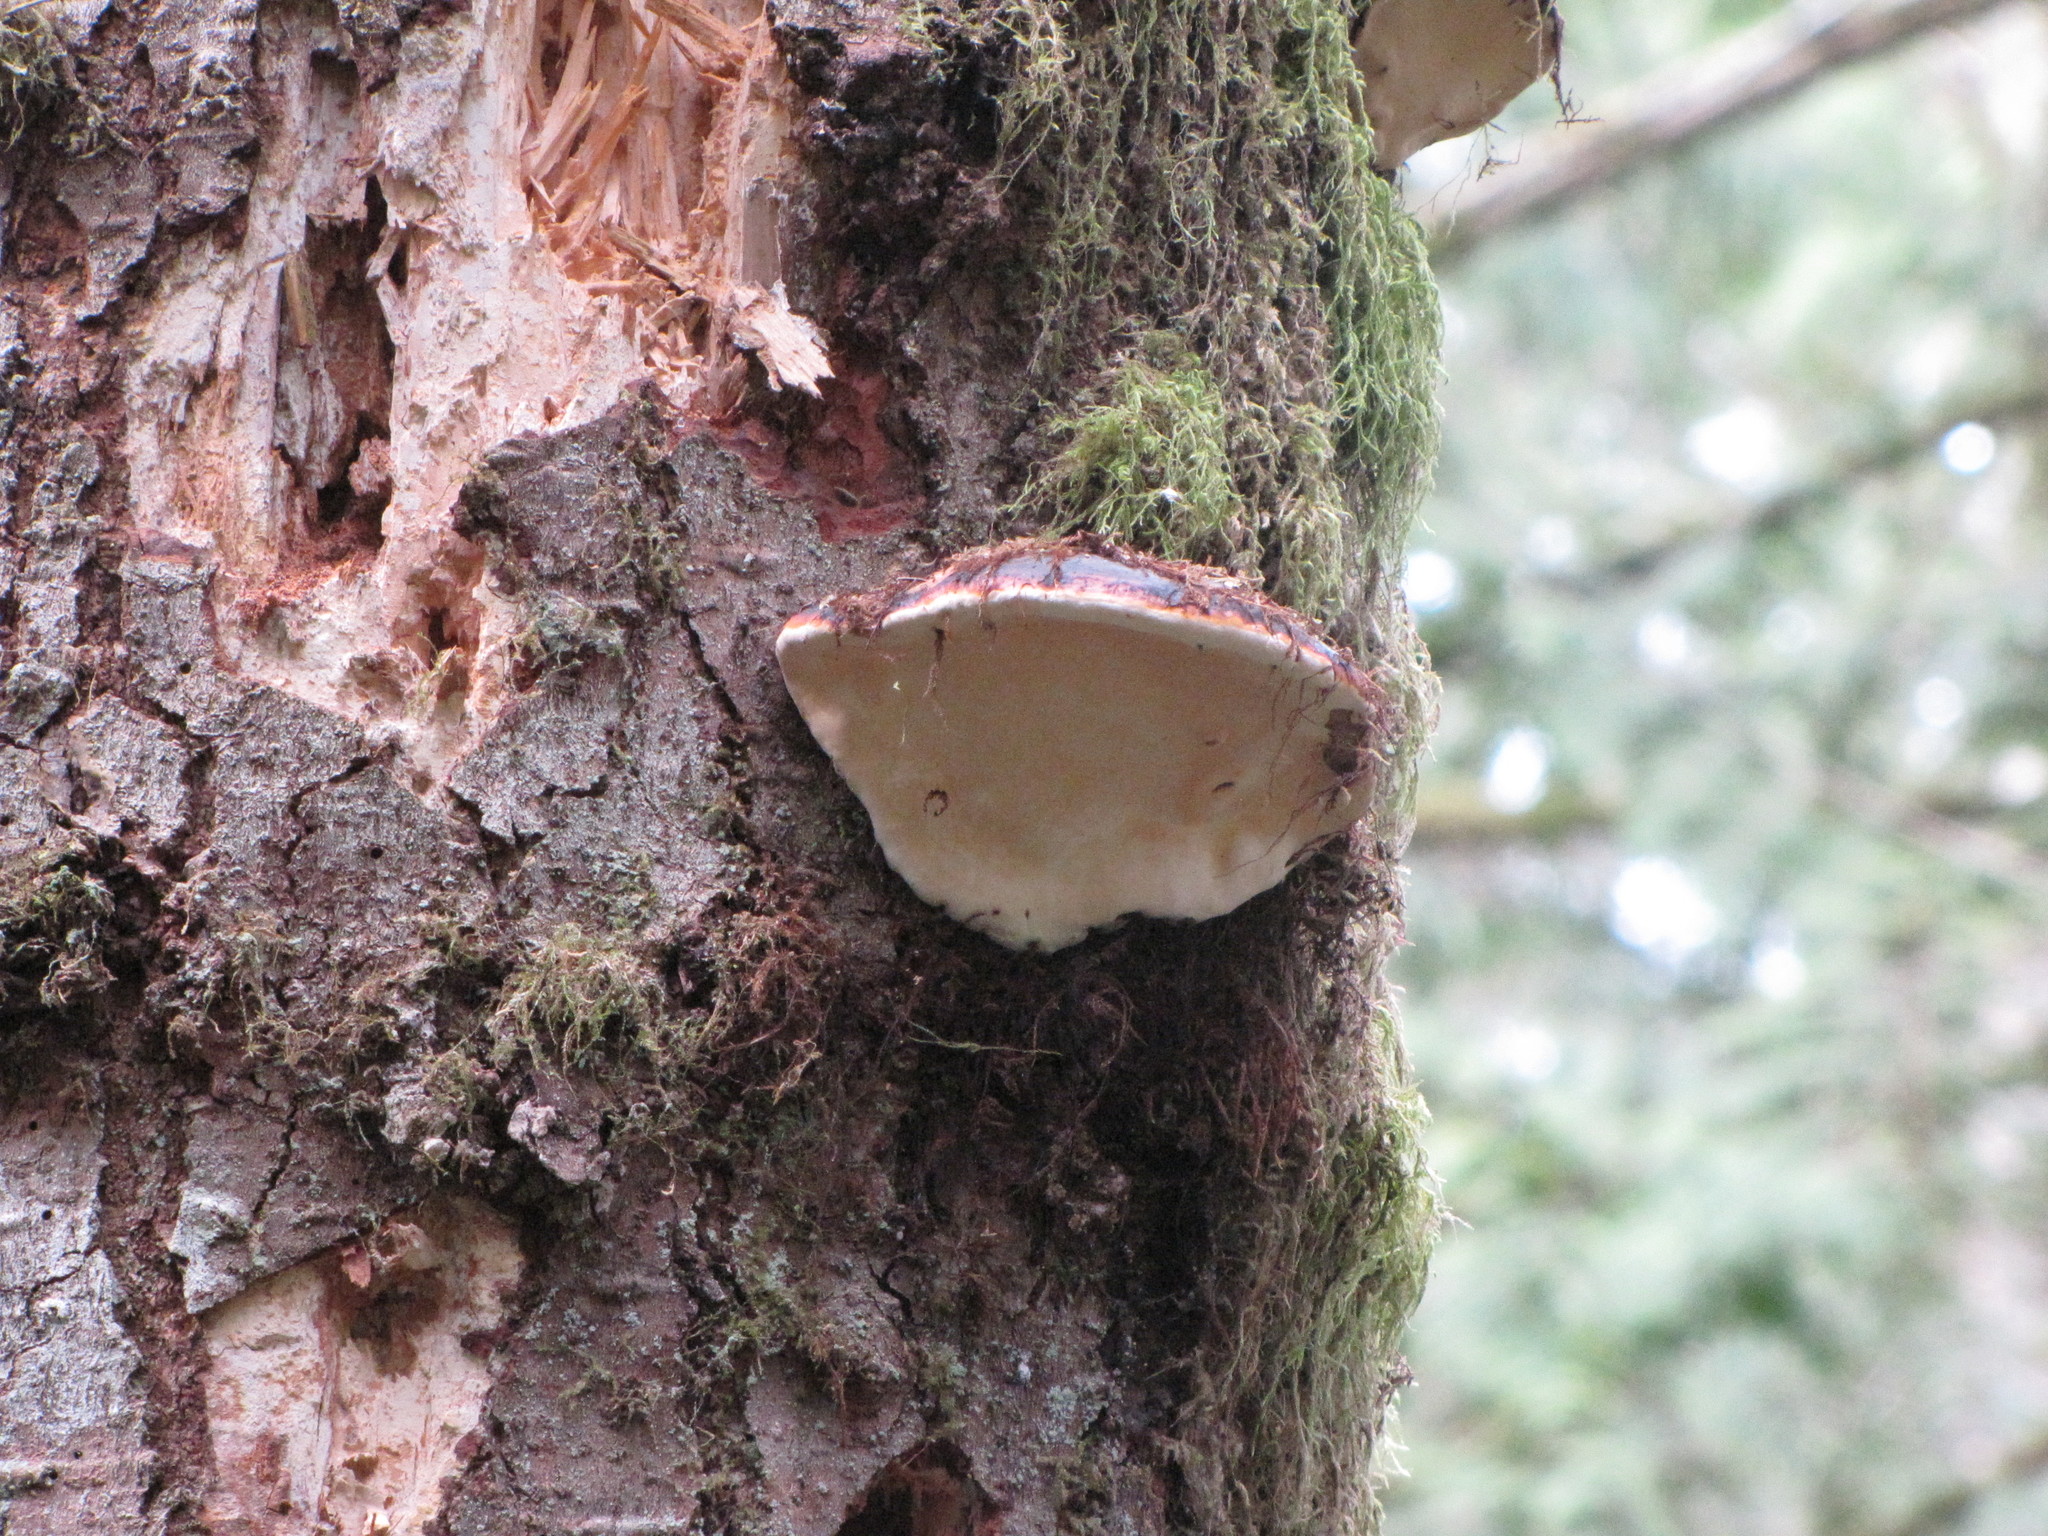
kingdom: Fungi
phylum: Basidiomycota
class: Agaricomycetes
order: Polyporales
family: Fomitopsidaceae
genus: Fomitopsis
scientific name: Fomitopsis mounceae
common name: Northern red belt
